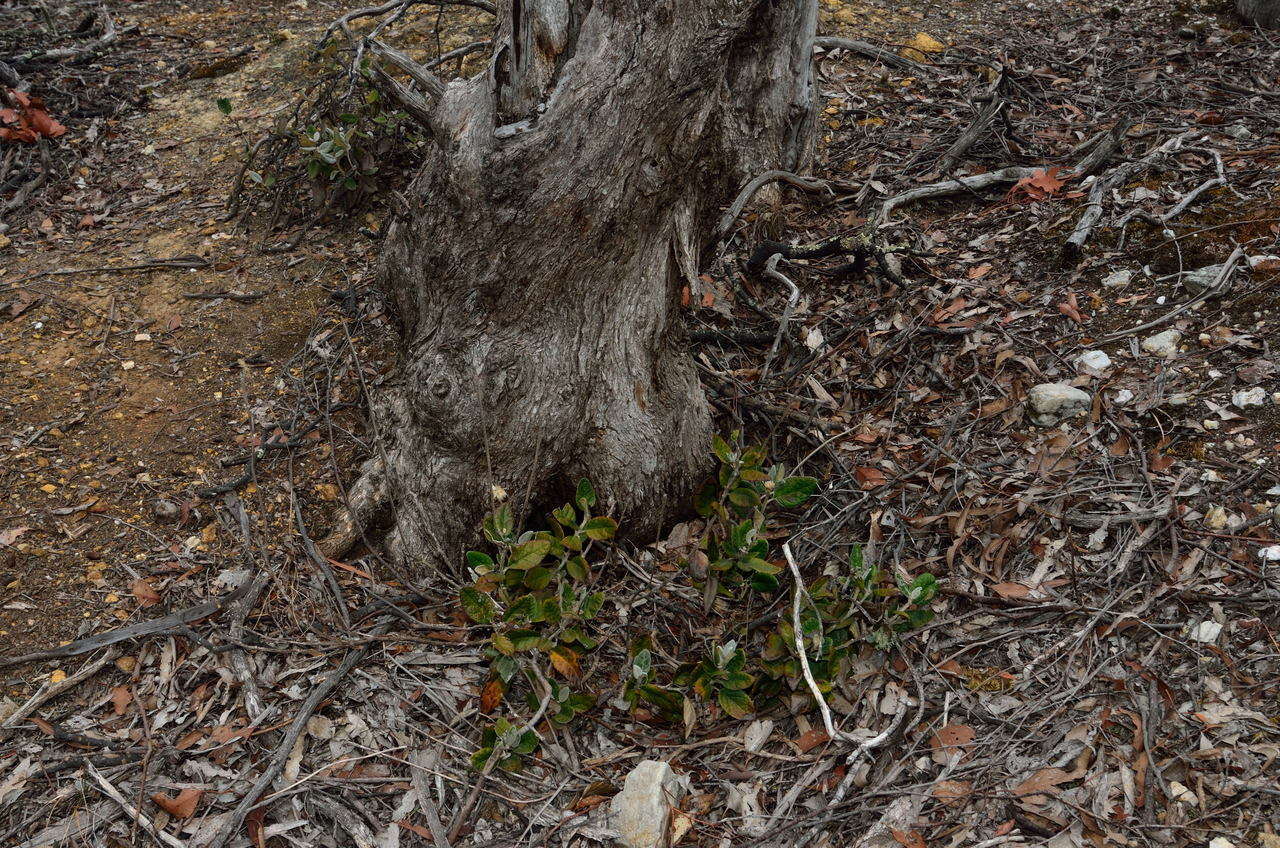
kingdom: Plantae
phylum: Tracheophyta
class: Magnoliopsida
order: Asterales
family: Asteraceae
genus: Olearia
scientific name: Olearia pannosa
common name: Velvet daisybush
